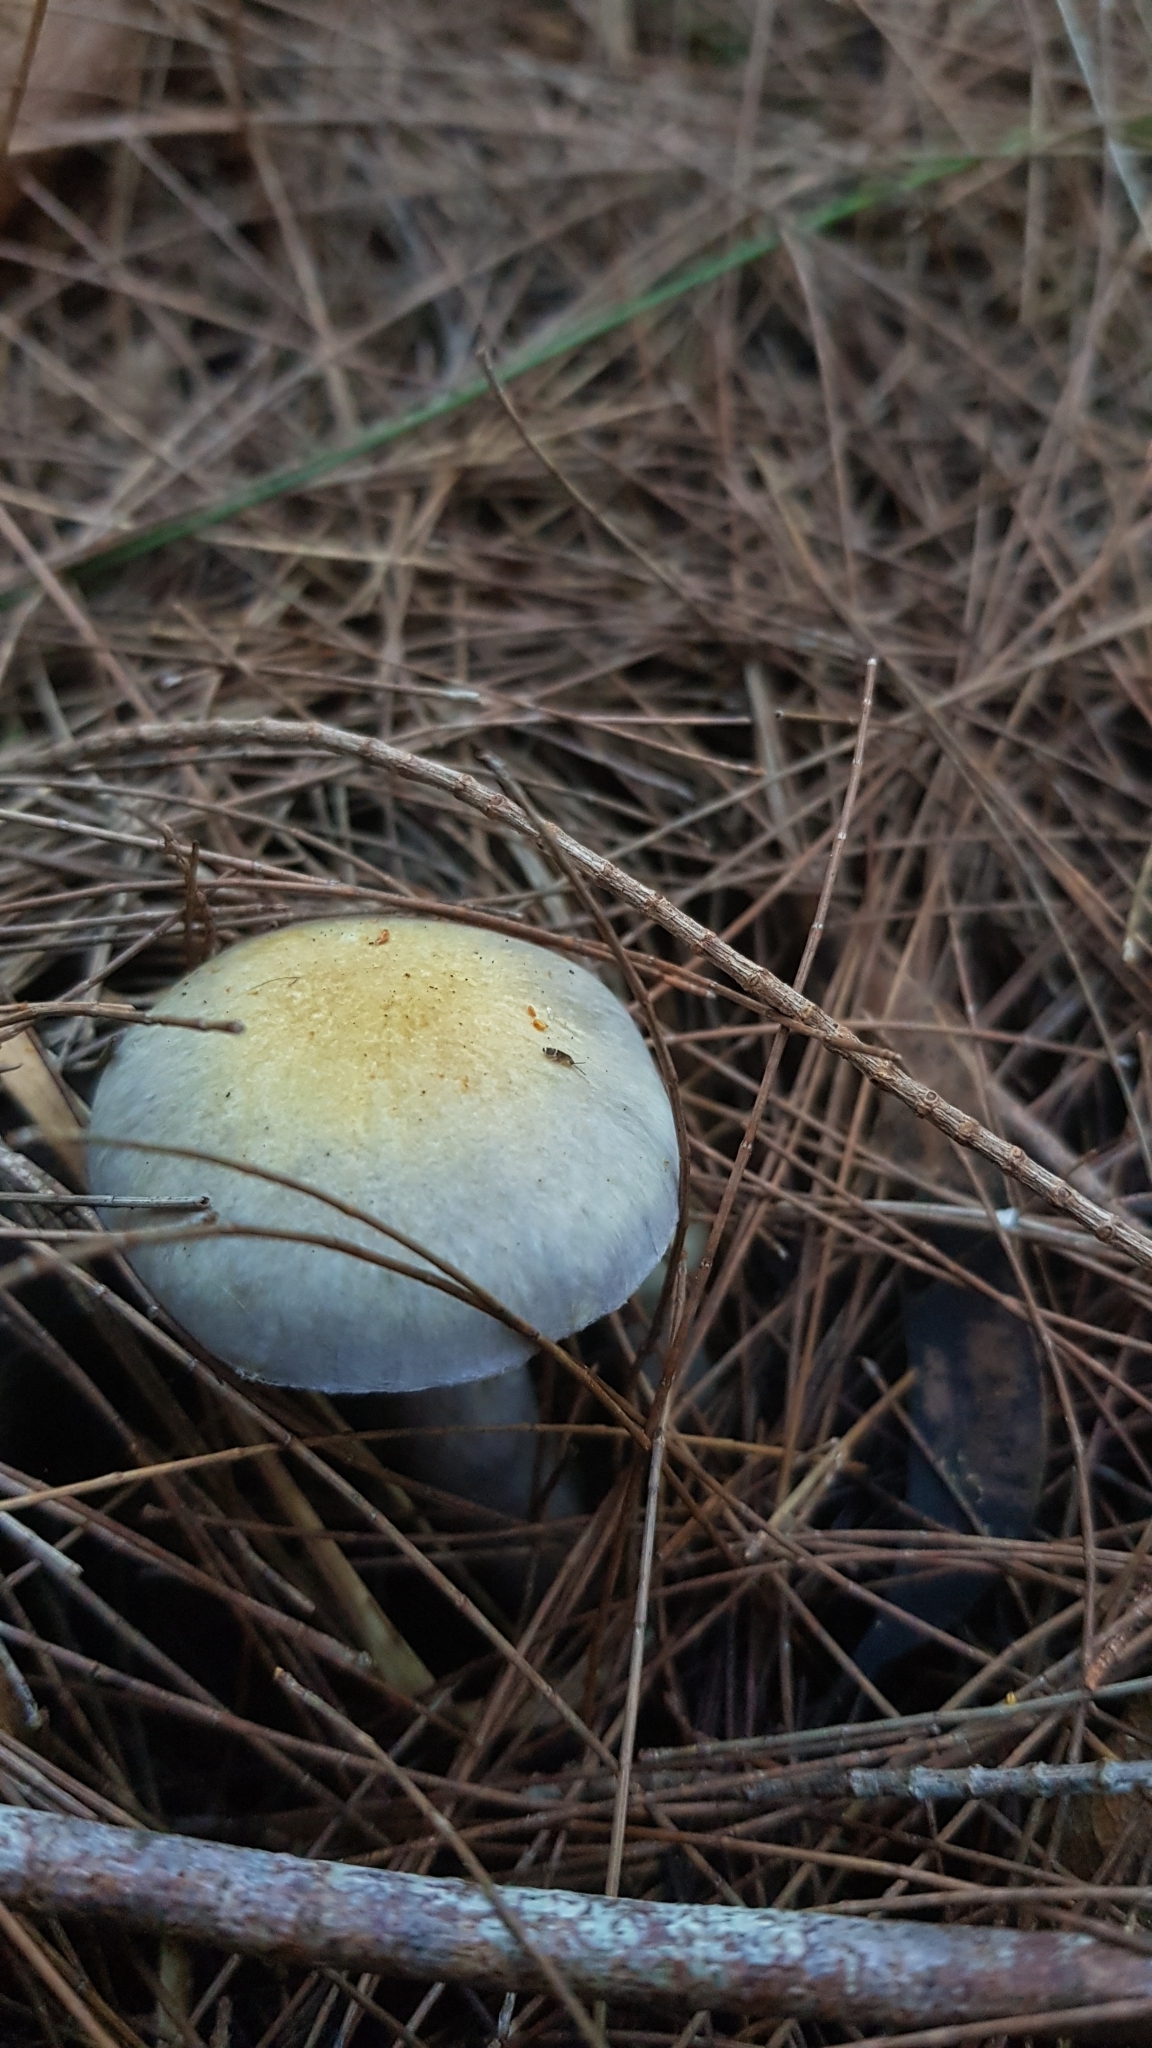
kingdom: Fungi
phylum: Basidiomycota
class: Agaricomycetes
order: Agaricales
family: Cortinariaceae
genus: Cortinarius
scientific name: Cortinarius rotundisporus
